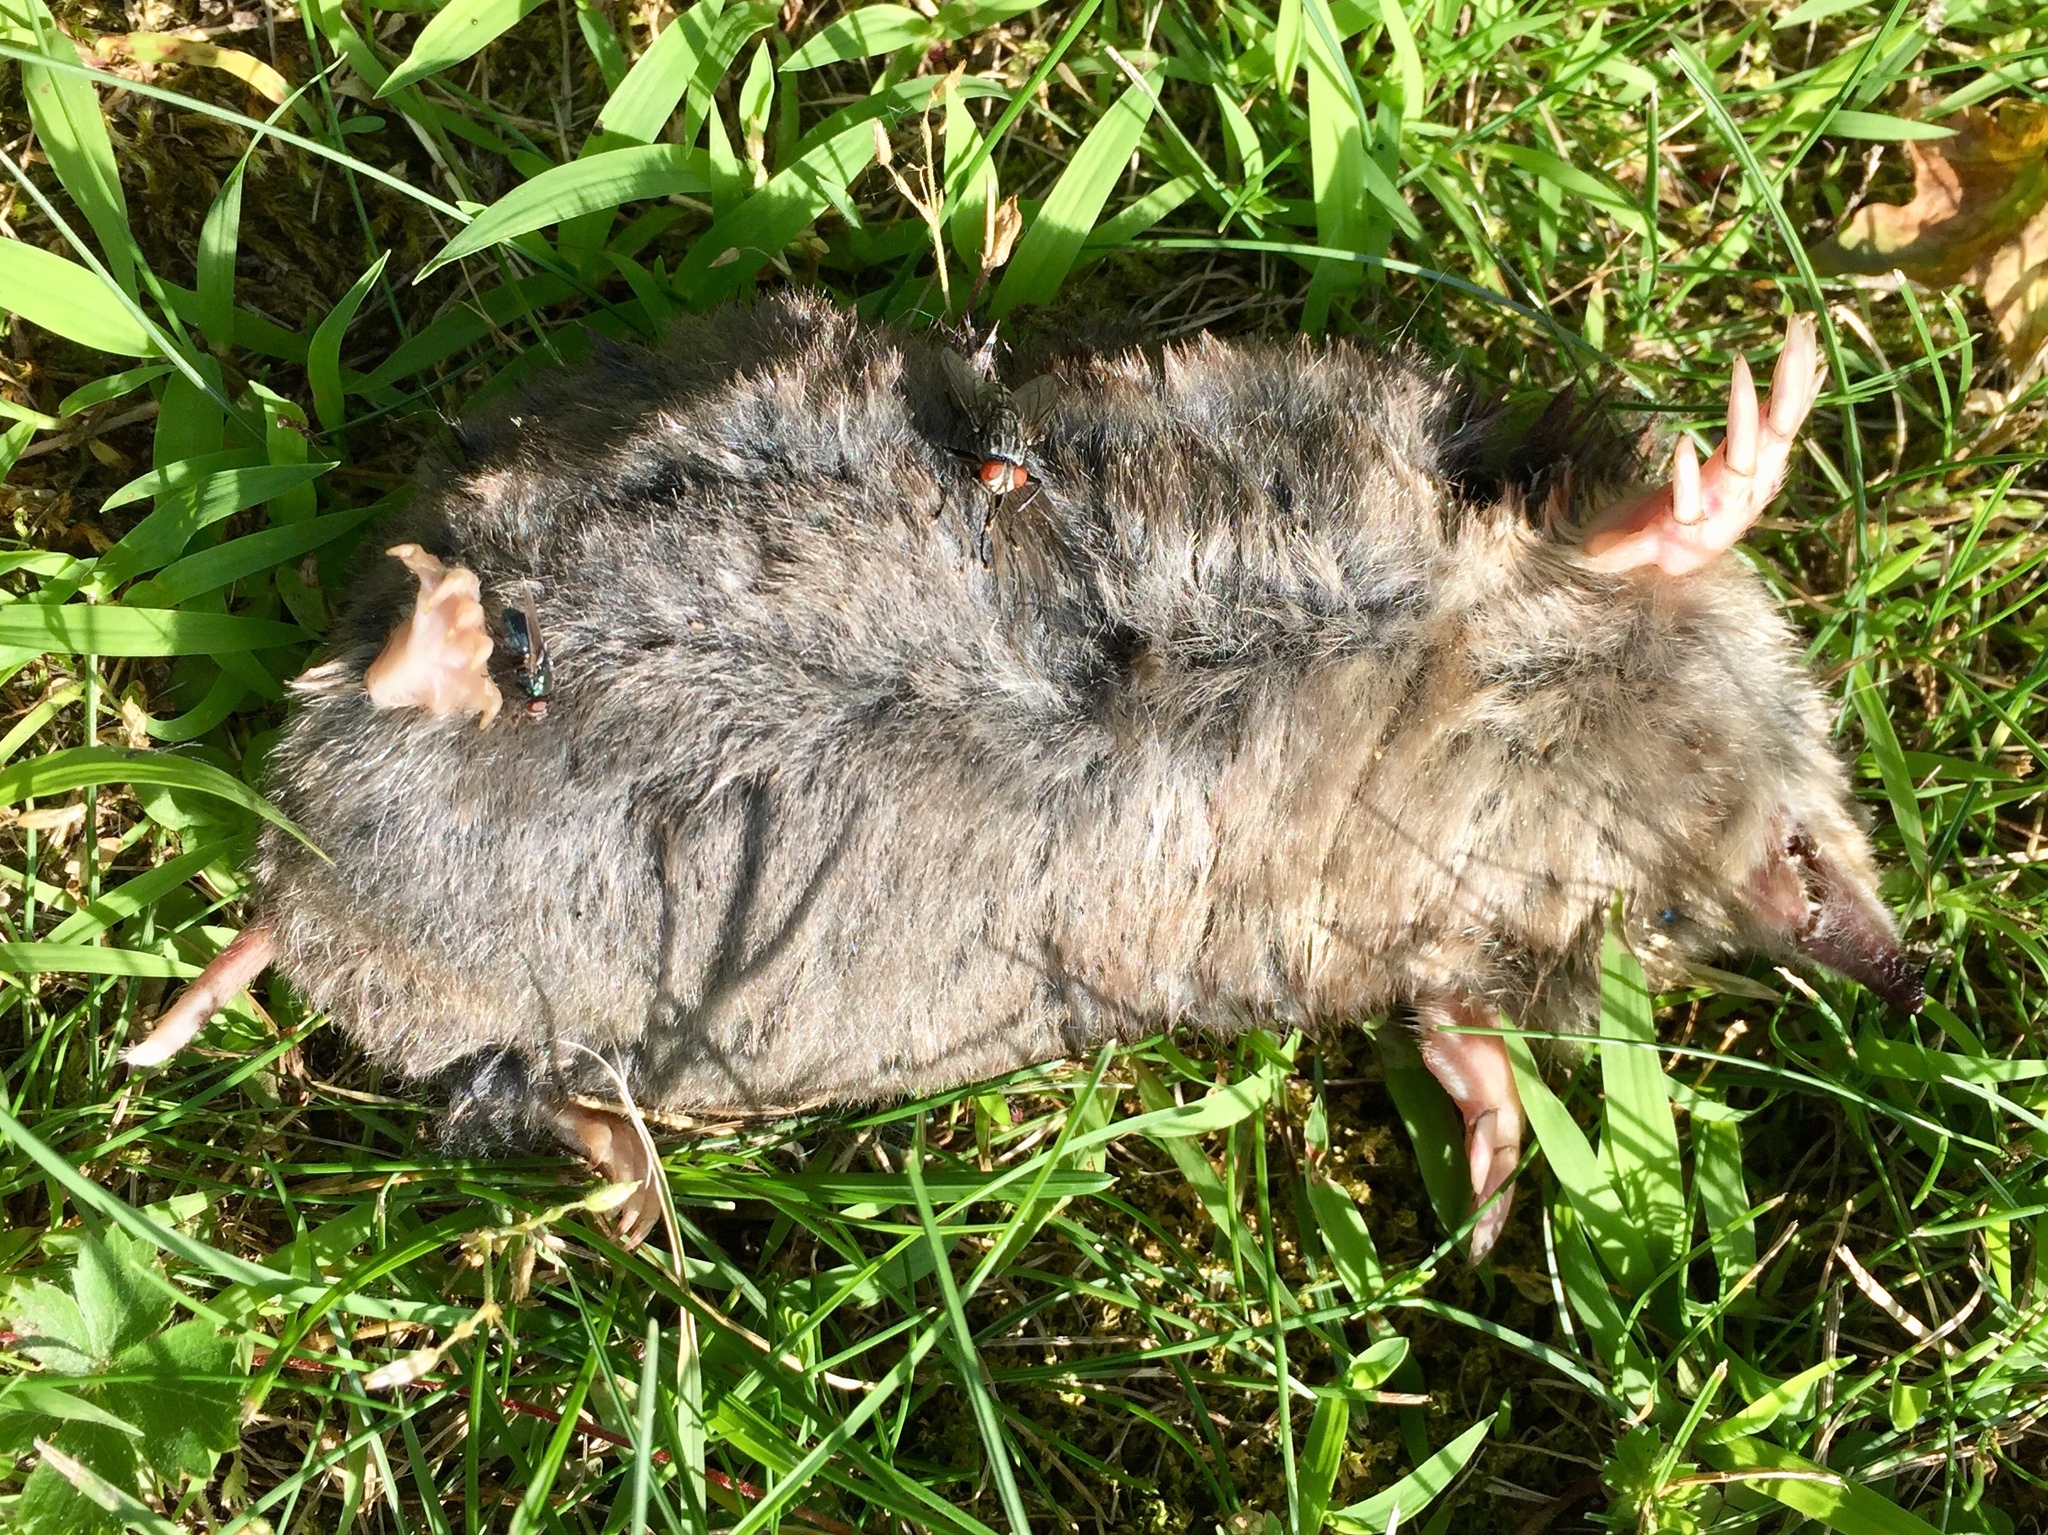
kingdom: Animalia
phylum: Chordata
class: Mammalia
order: Soricomorpha
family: Talpidae
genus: Scalopus
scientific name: Scalopus aquaticus
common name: Eastern mole
